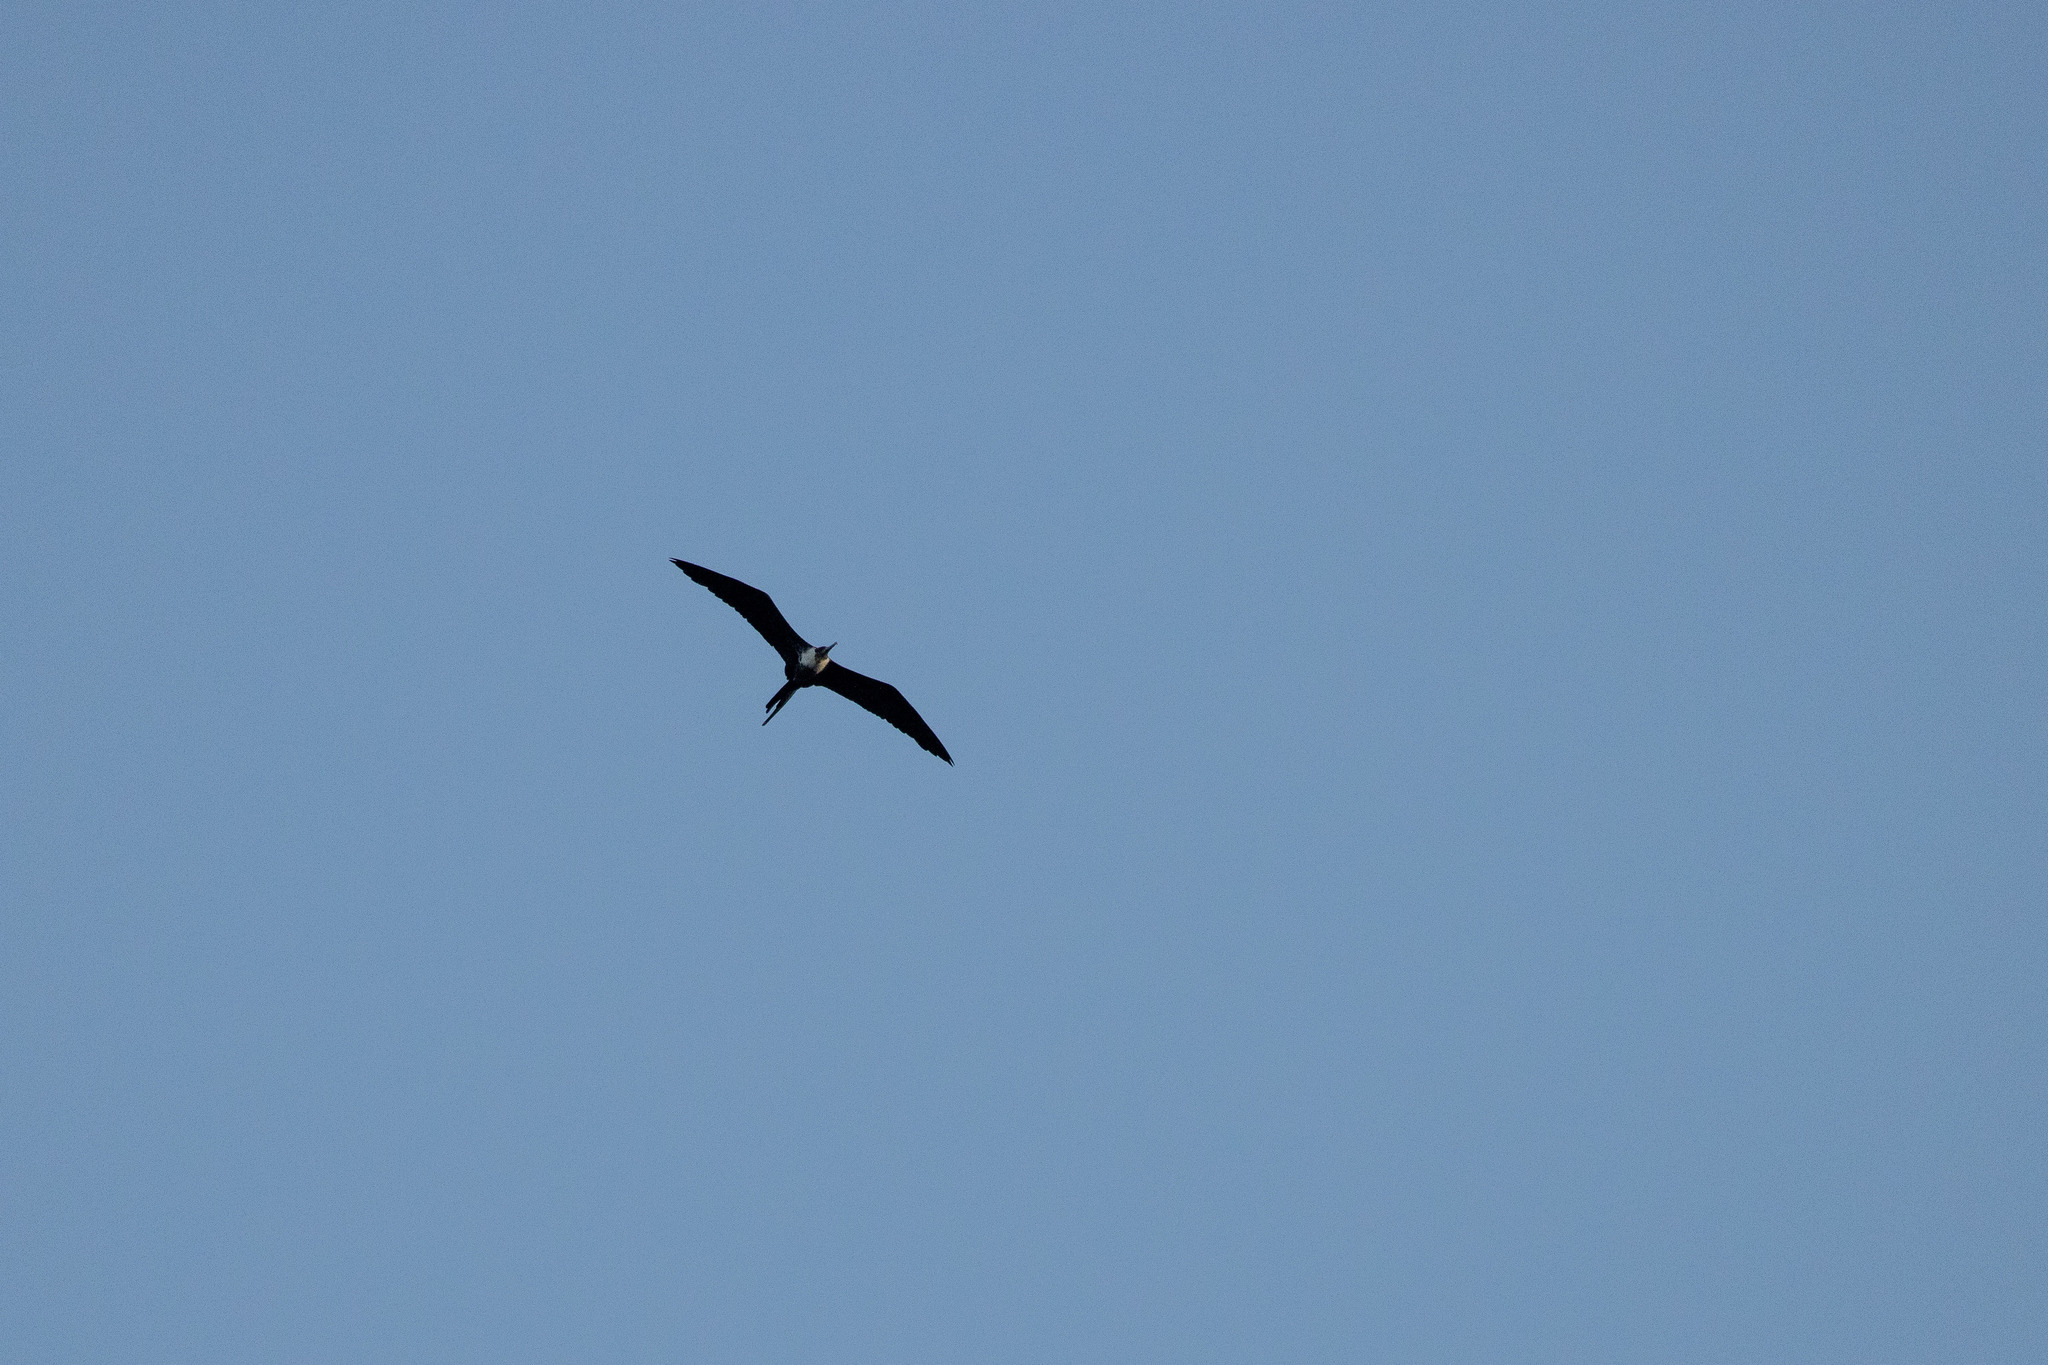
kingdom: Animalia
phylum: Chordata
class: Aves
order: Suliformes
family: Fregatidae
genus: Fregata
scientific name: Fregata magnificens
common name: Magnificent frigatebird
